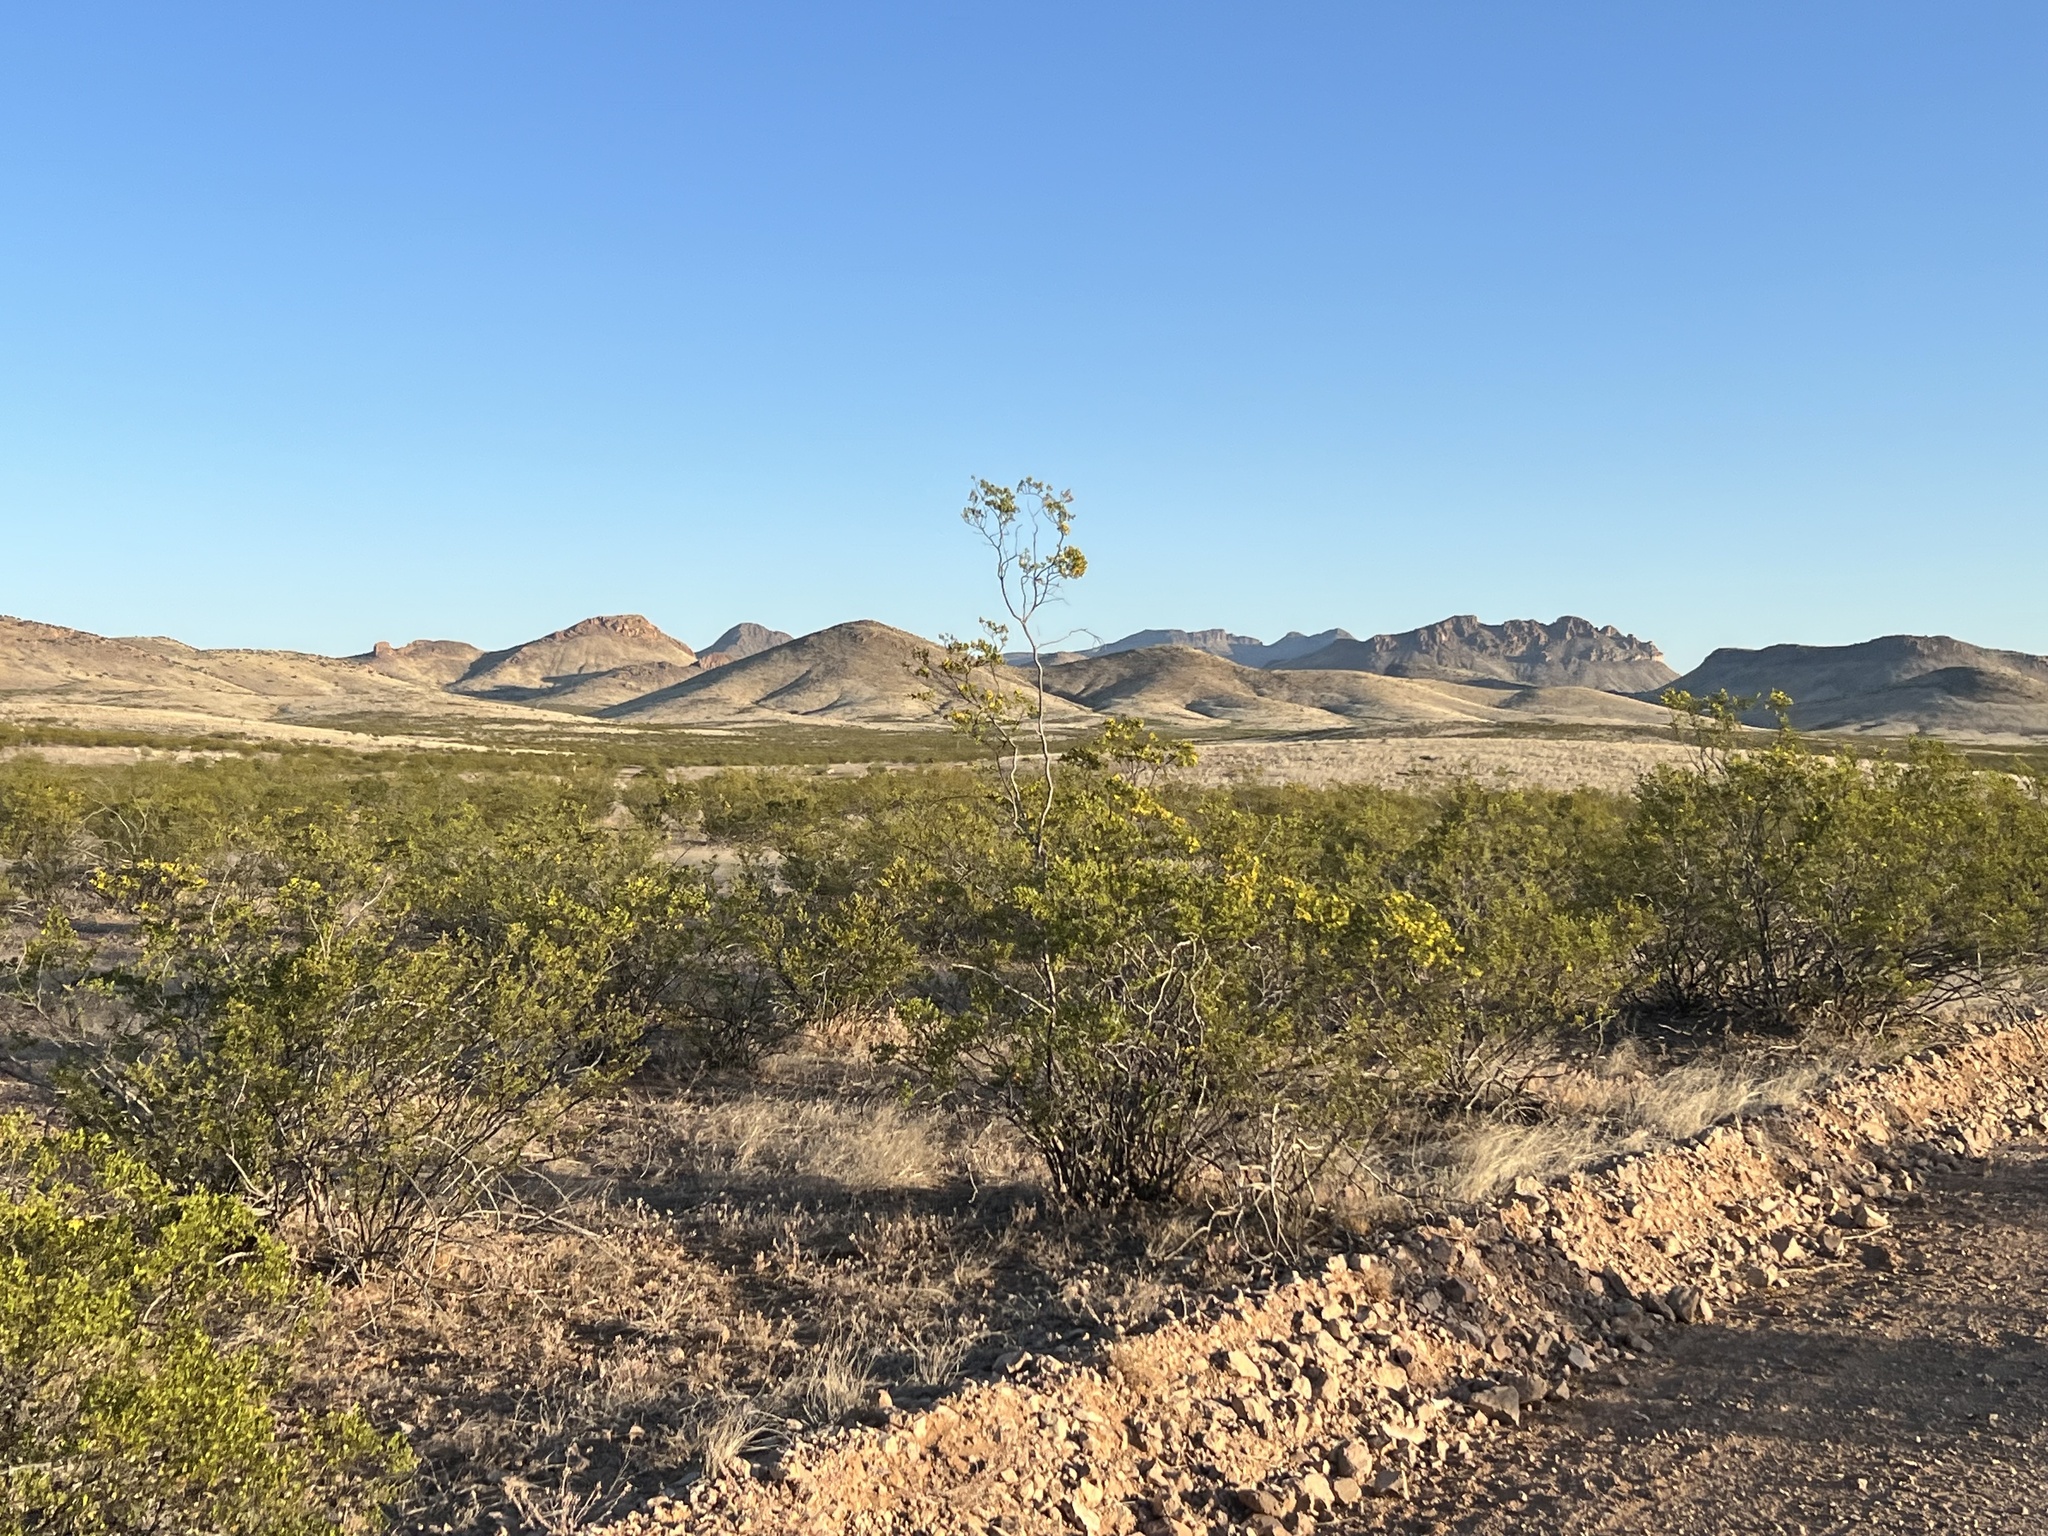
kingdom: Plantae
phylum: Tracheophyta
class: Magnoliopsida
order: Zygophyllales
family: Zygophyllaceae
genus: Larrea
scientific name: Larrea tridentata
